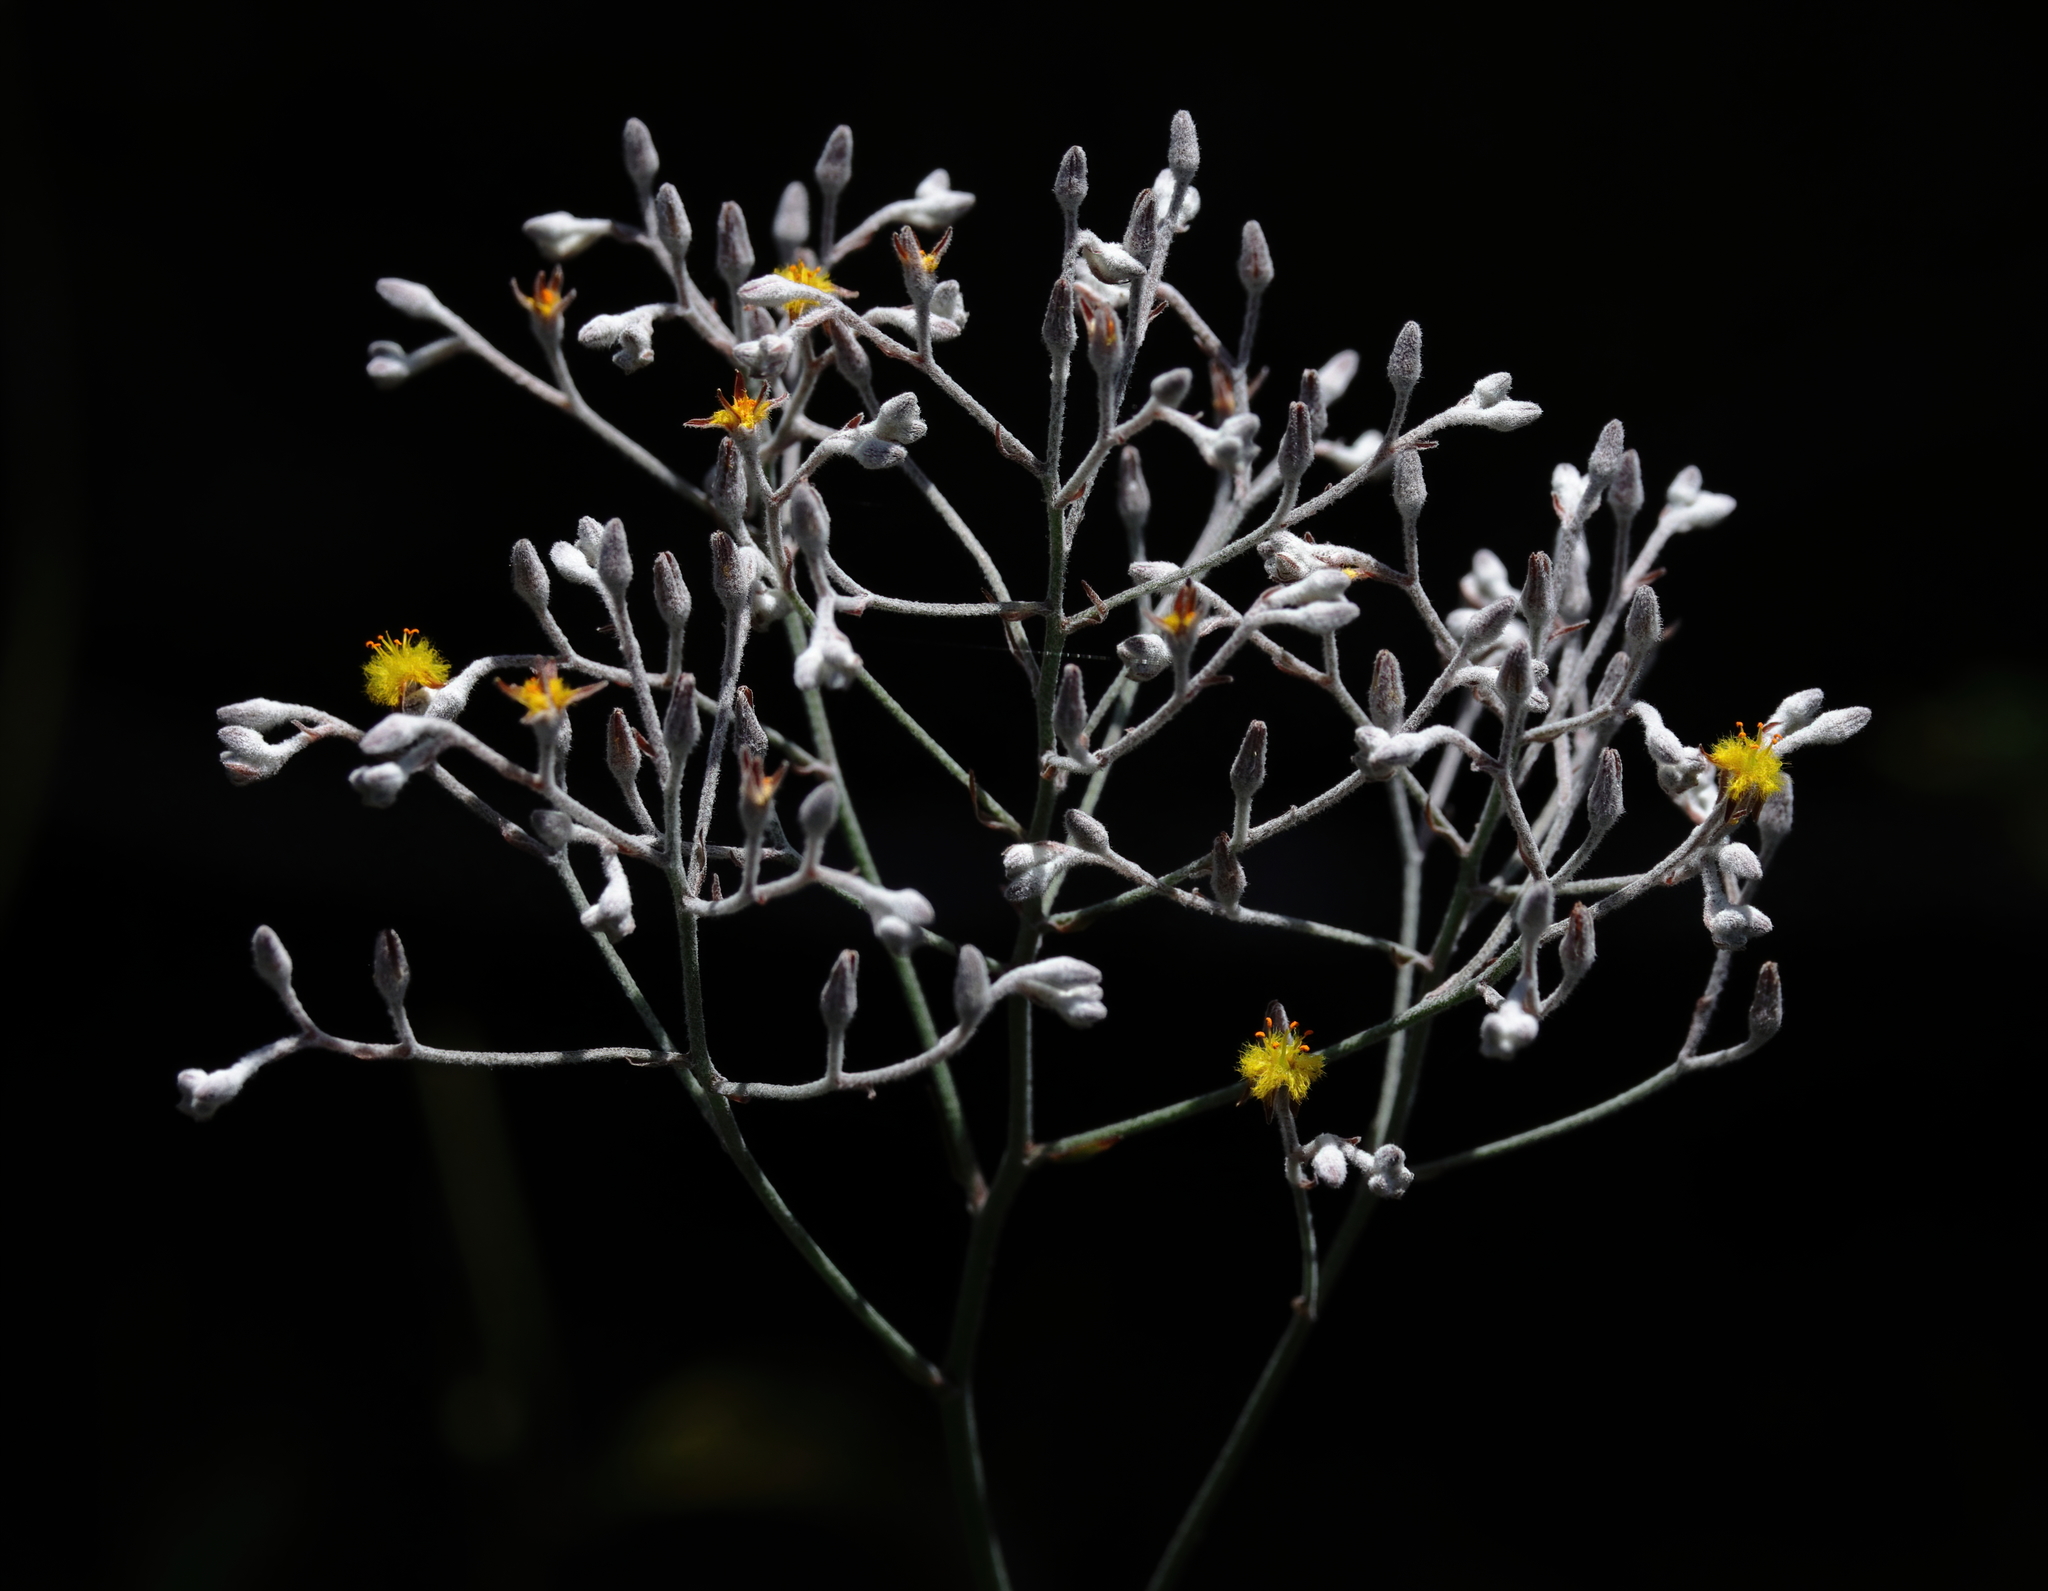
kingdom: Plantae
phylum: Tracheophyta
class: Liliopsida
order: Dioscoreales
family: Nartheciaceae
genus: Lophiola
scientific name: Lophiola aurea
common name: Golden-crest
